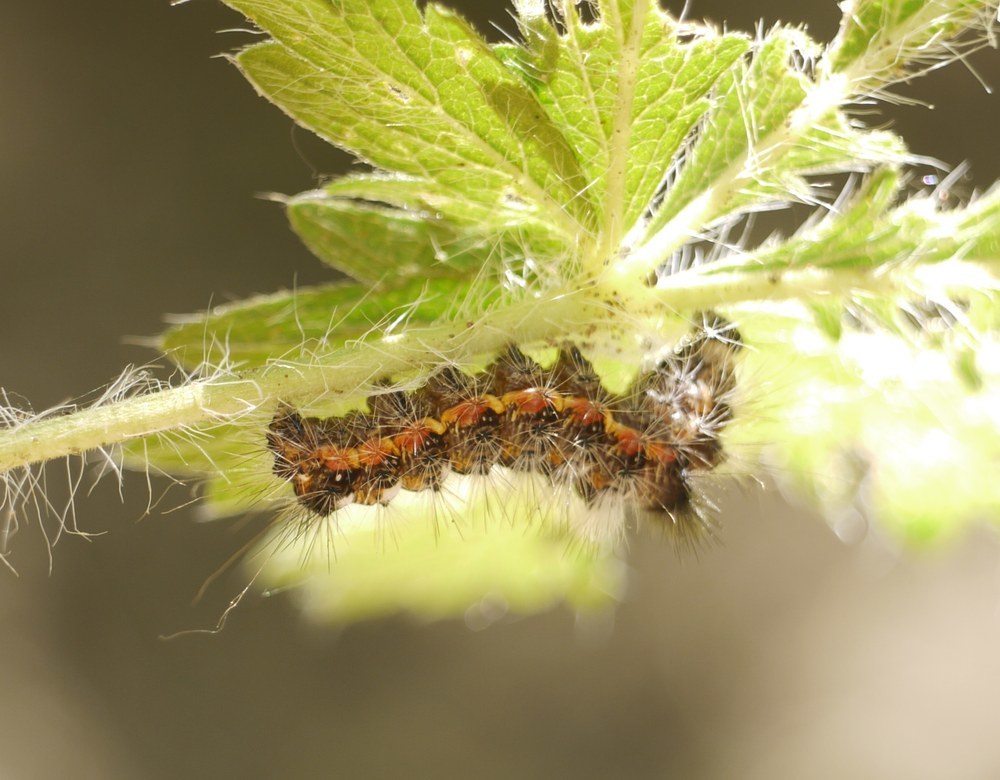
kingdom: Animalia
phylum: Arthropoda
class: Insecta
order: Lepidoptera
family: Noctuidae
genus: Acronicta
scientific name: Acronicta rumicis
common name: Knot grass
